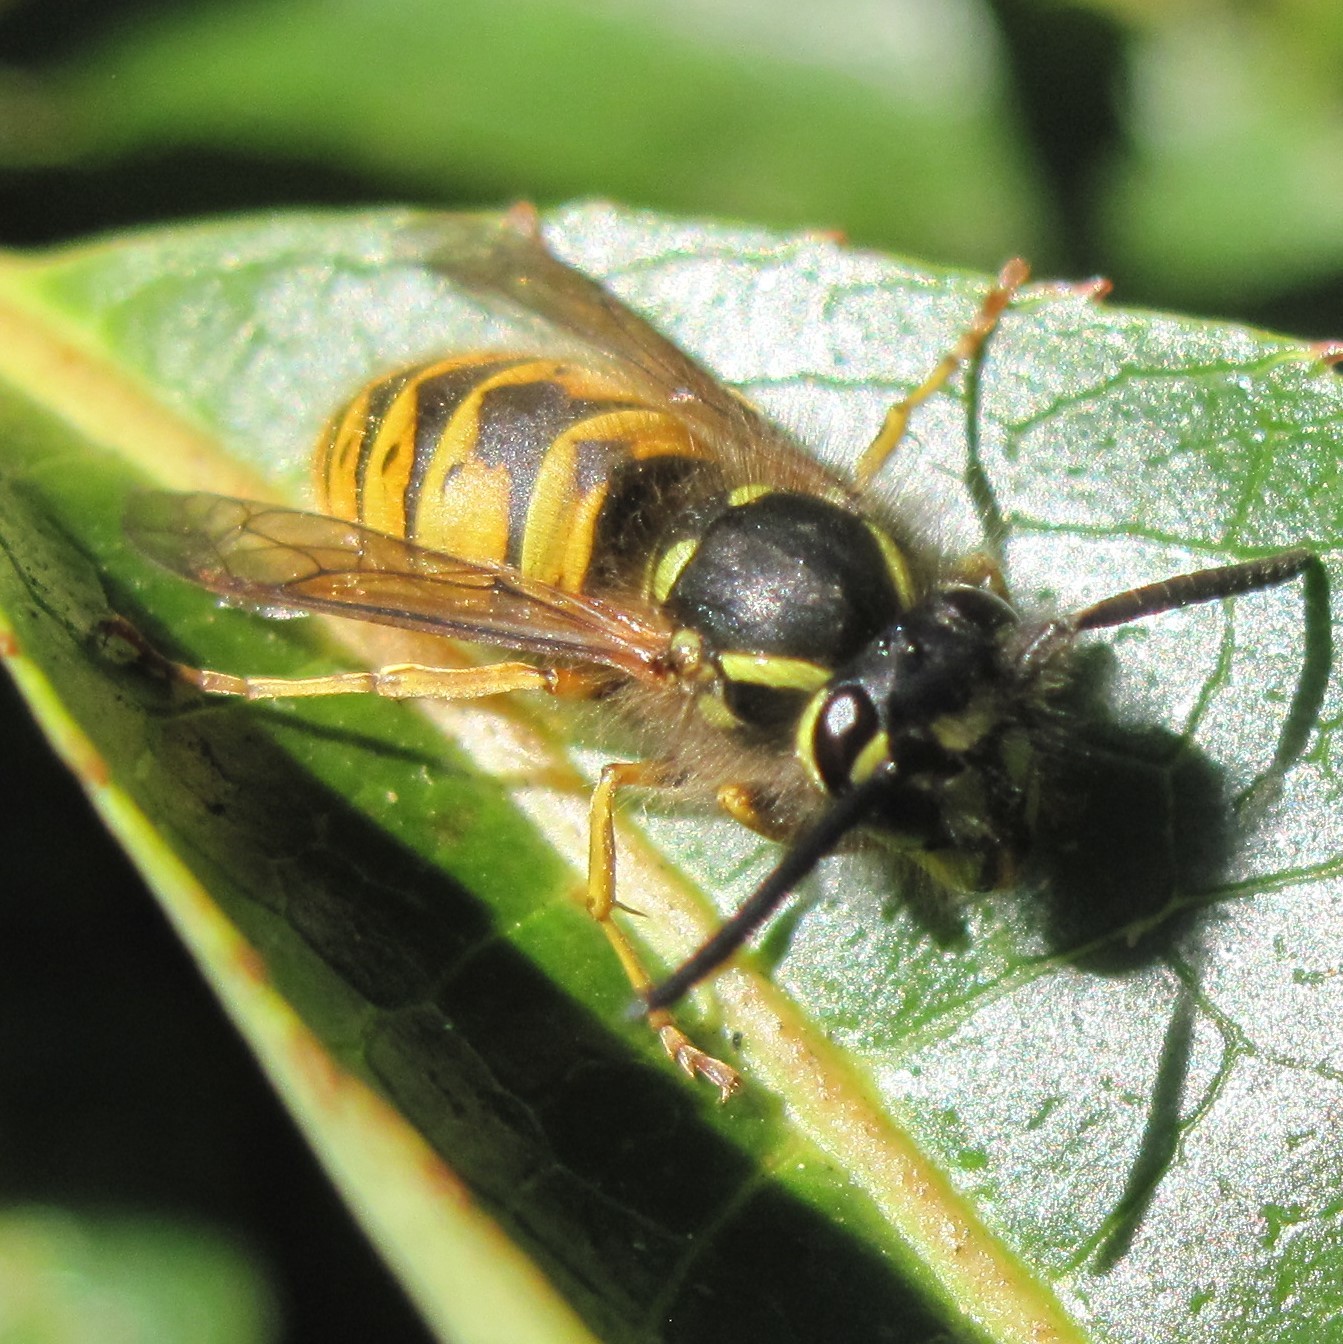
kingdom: Animalia
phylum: Arthropoda
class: Insecta
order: Hymenoptera
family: Vespidae
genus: Vespula
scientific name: Vespula vulgaris
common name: Common wasp
